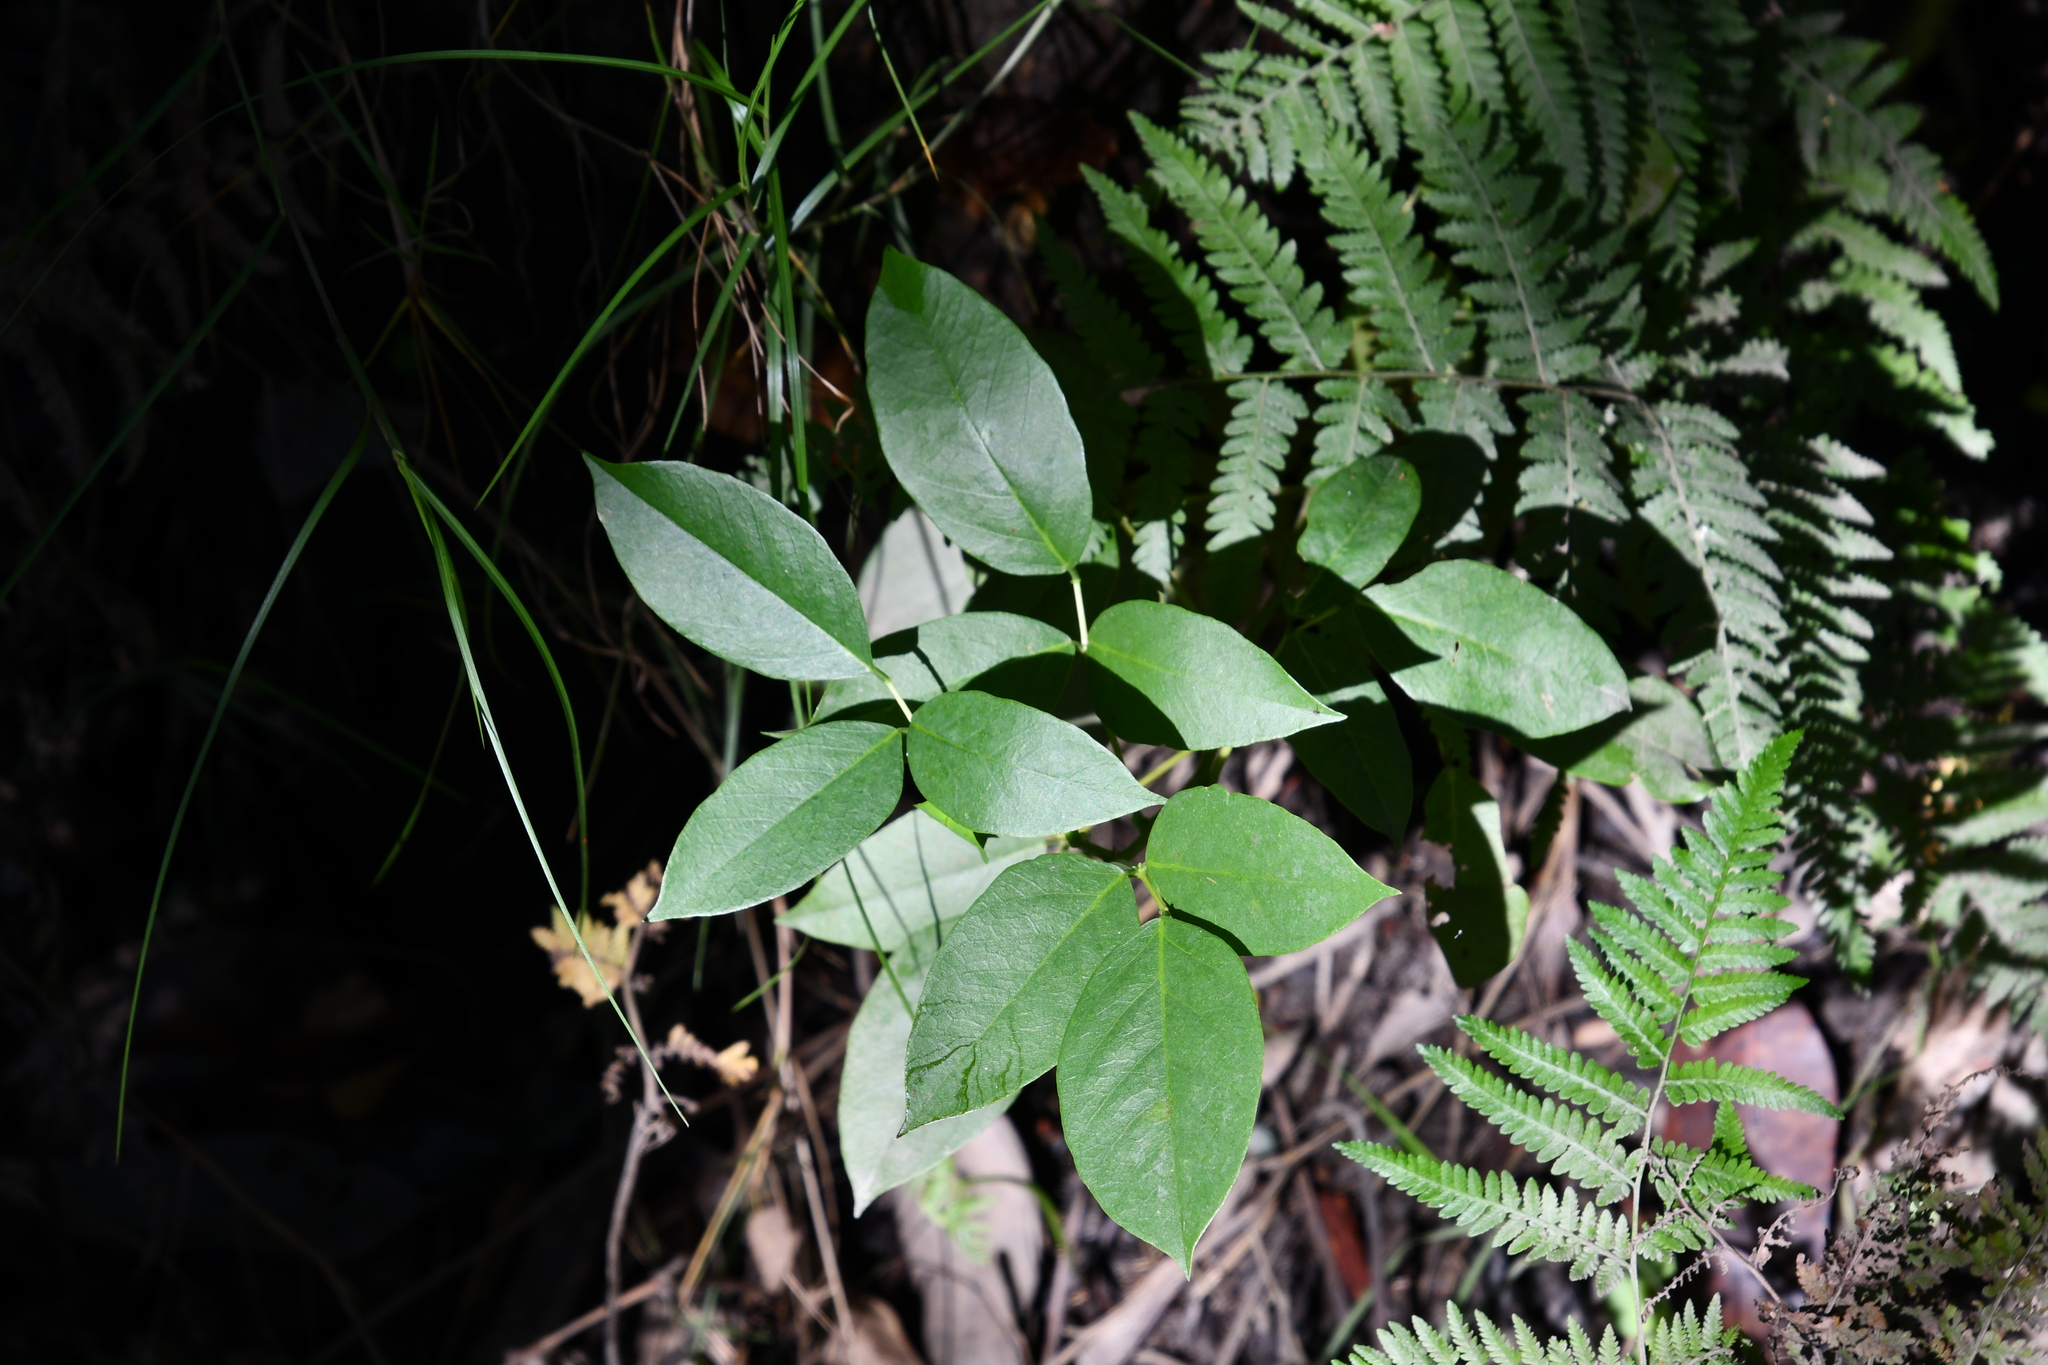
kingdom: Plantae
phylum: Tracheophyta
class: Magnoliopsida
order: Fabales
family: Fabaceae
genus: Erythrina
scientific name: Erythrina crista-galli
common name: Cockspur coral tree
